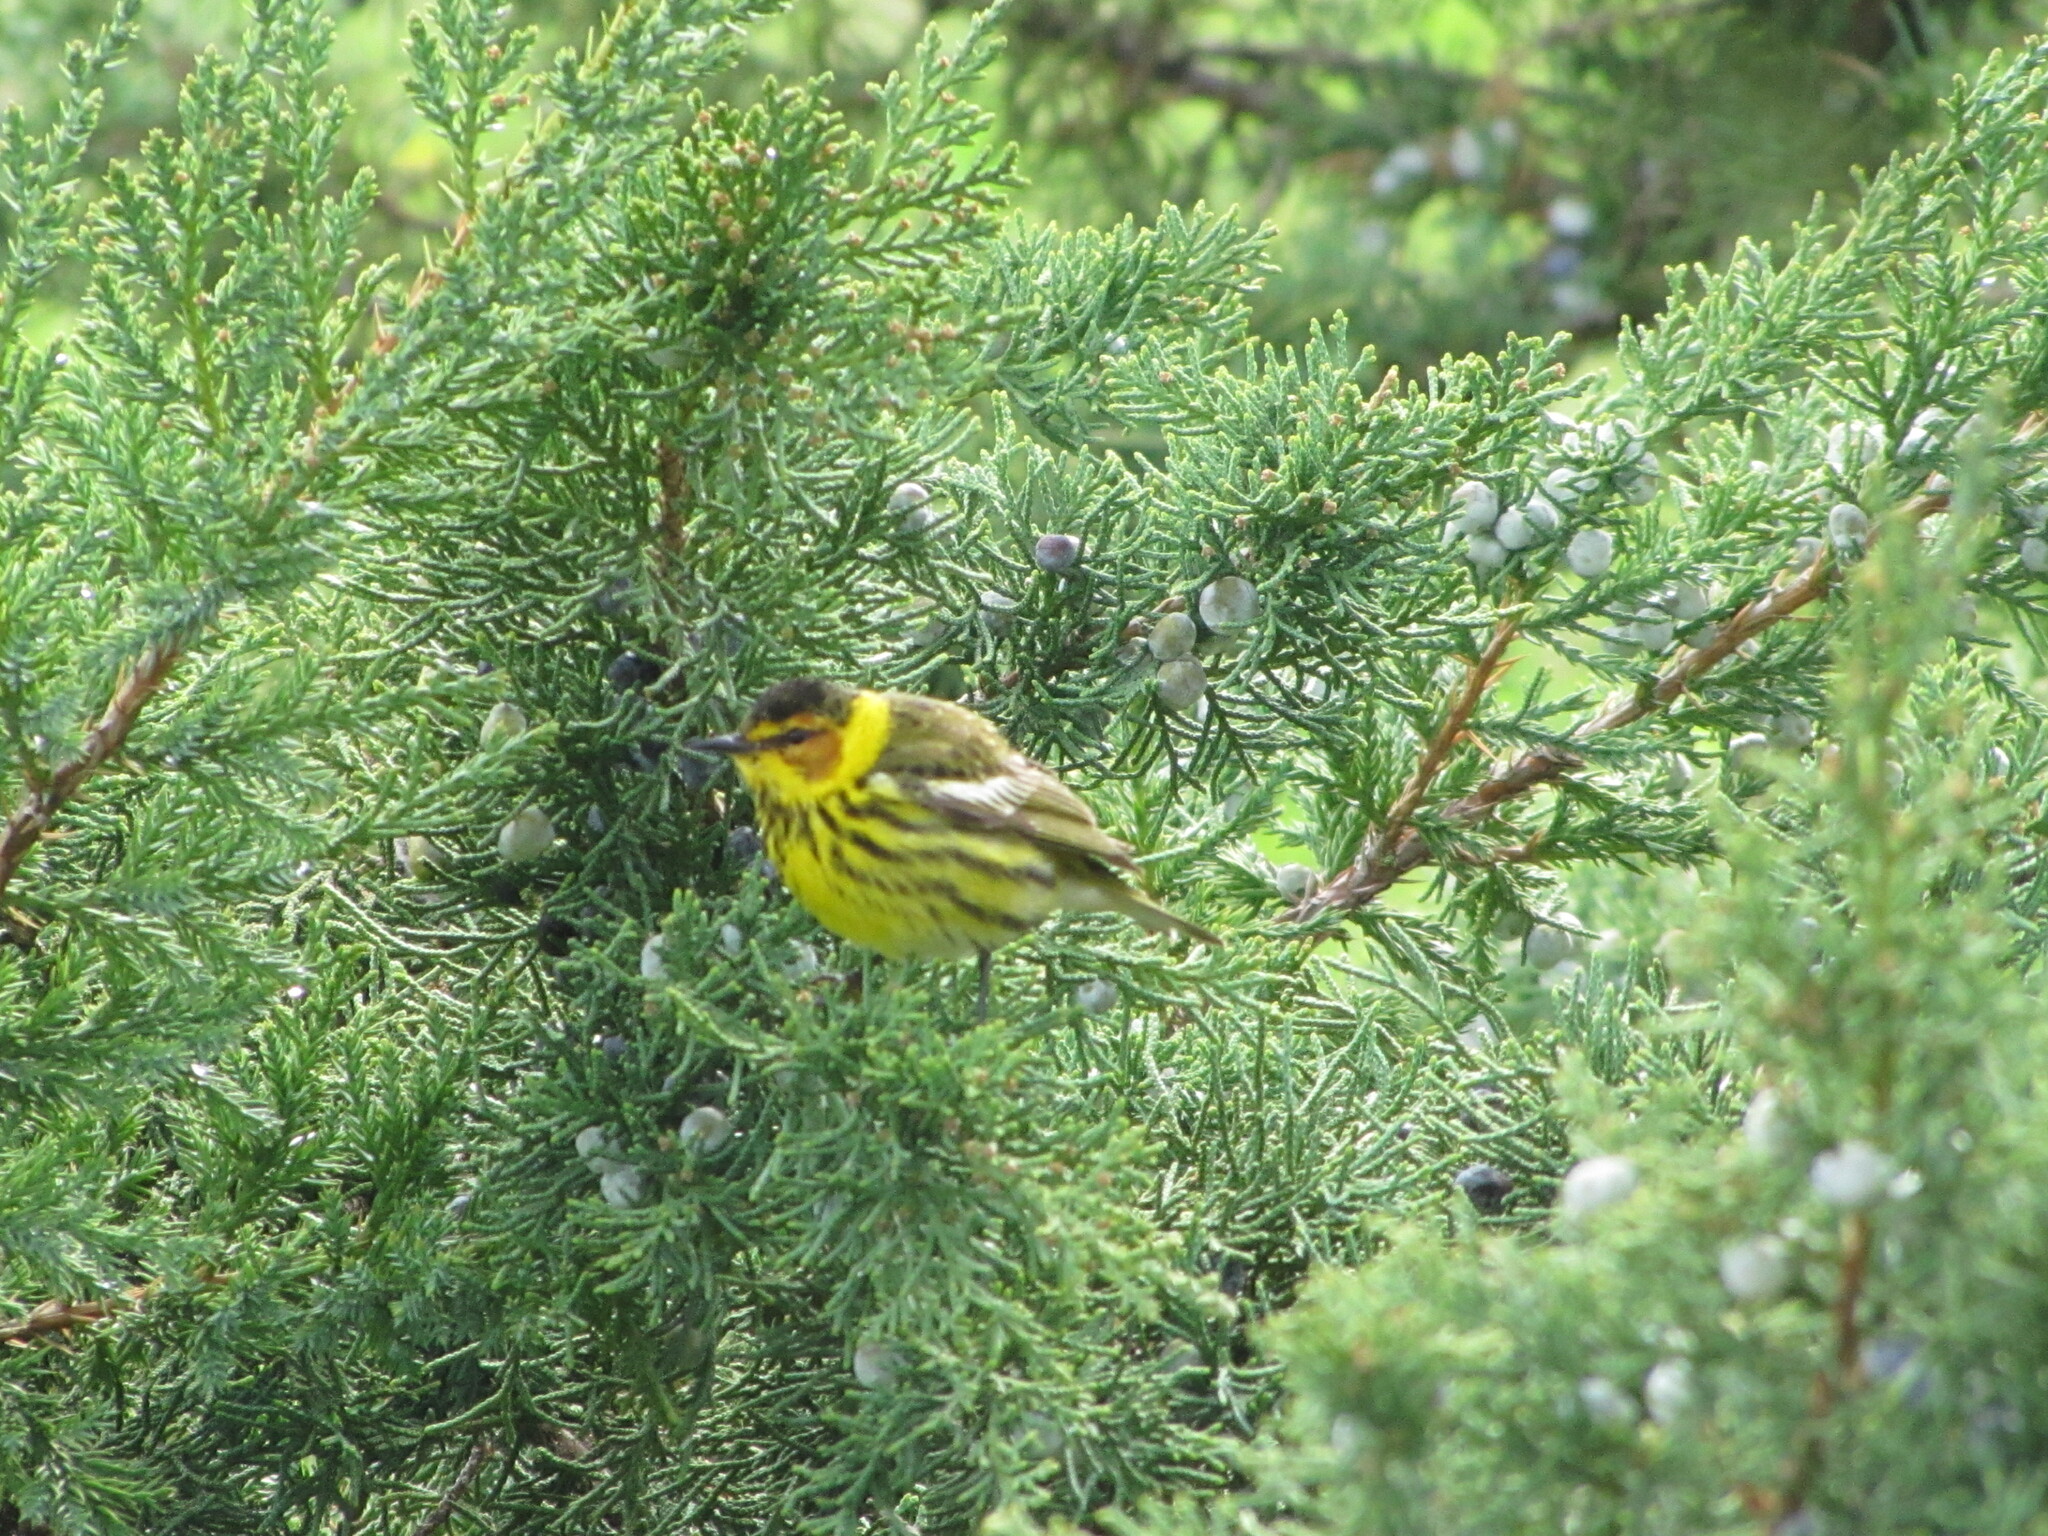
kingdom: Animalia
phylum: Chordata
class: Aves
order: Passeriformes
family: Parulidae
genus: Setophaga
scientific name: Setophaga tigrina
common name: Cape may warbler
